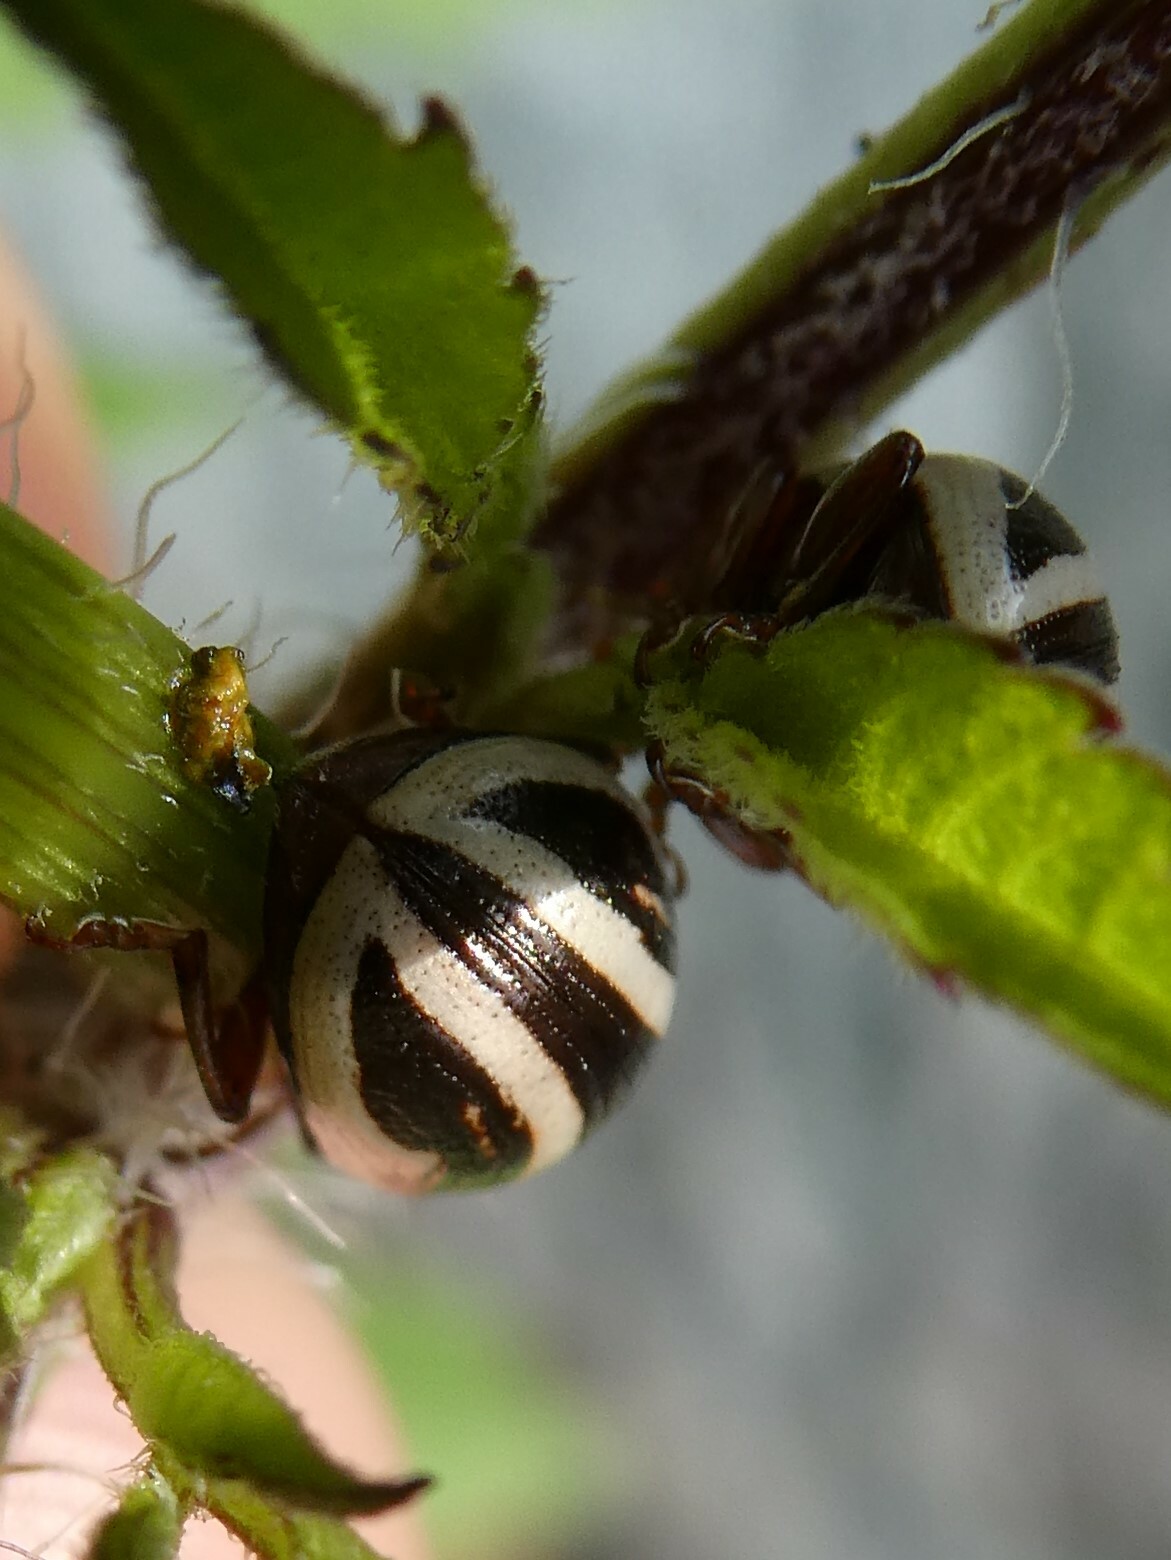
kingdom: Animalia
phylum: Arthropoda
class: Insecta
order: Coleoptera
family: Chrysomelidae
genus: Calligrapha
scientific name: Calligrapha bidenticola
